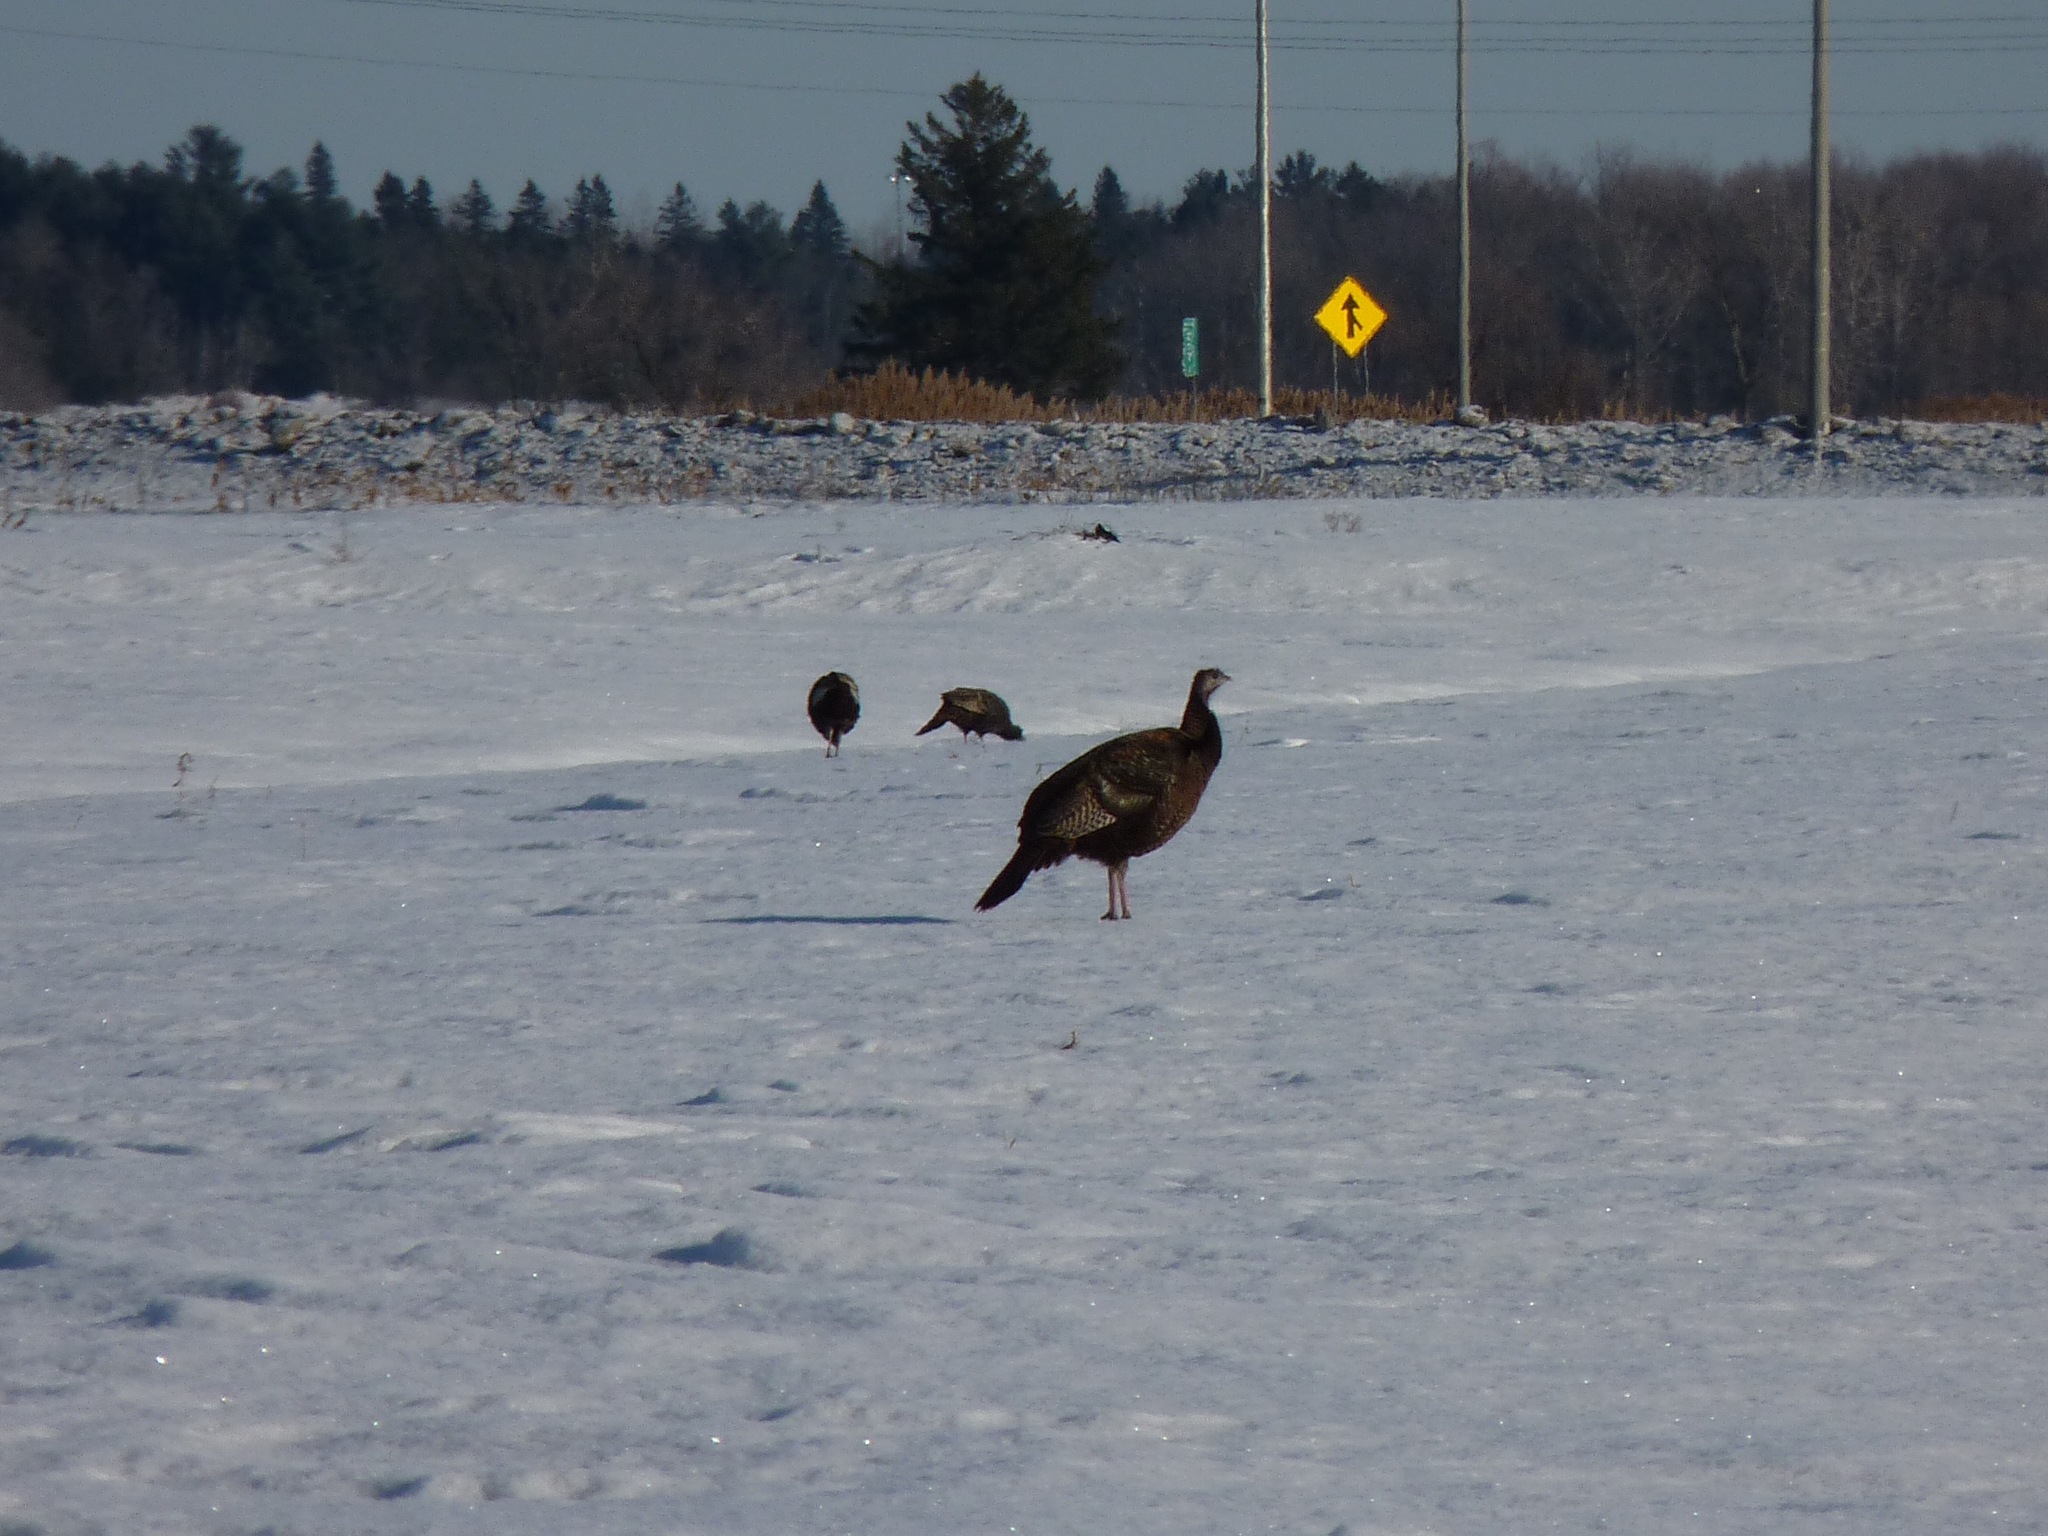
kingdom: Animalia
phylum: Chordata
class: Aves
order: Galliformes
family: Phasianidae
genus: Meleagris
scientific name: Meleagris gallopavo
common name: Wild turkey
